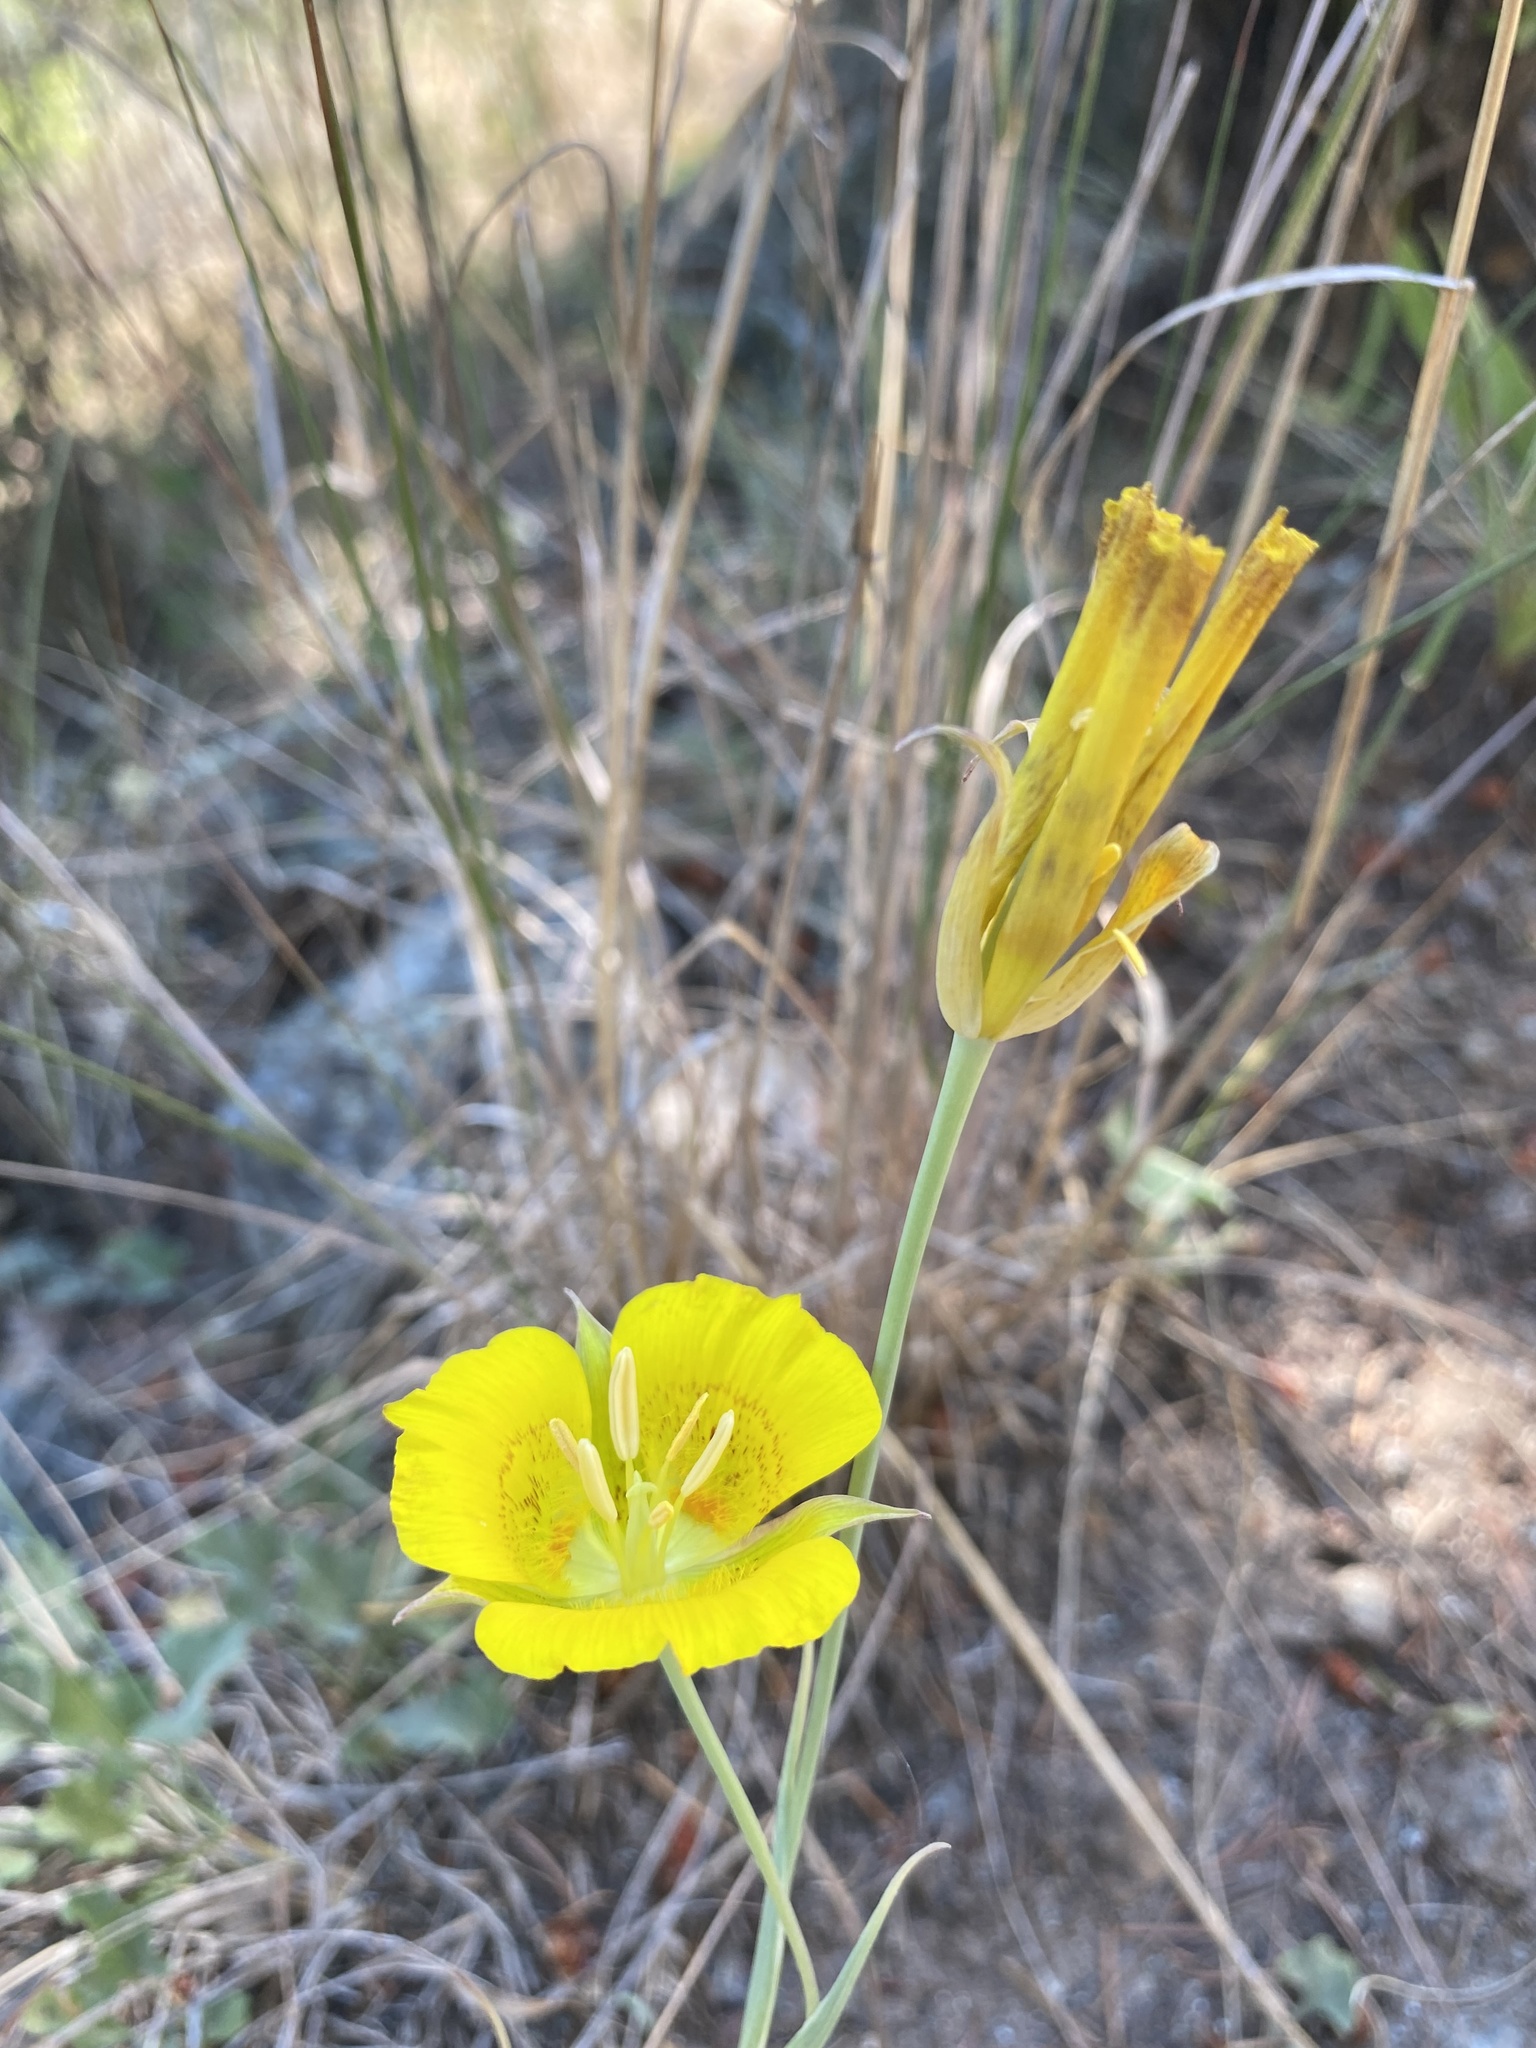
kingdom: Plantae
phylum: Tracheophyta
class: Liliopsida
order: Liliales
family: Liliaceae
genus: Calochortus
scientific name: Calochortus luteus
